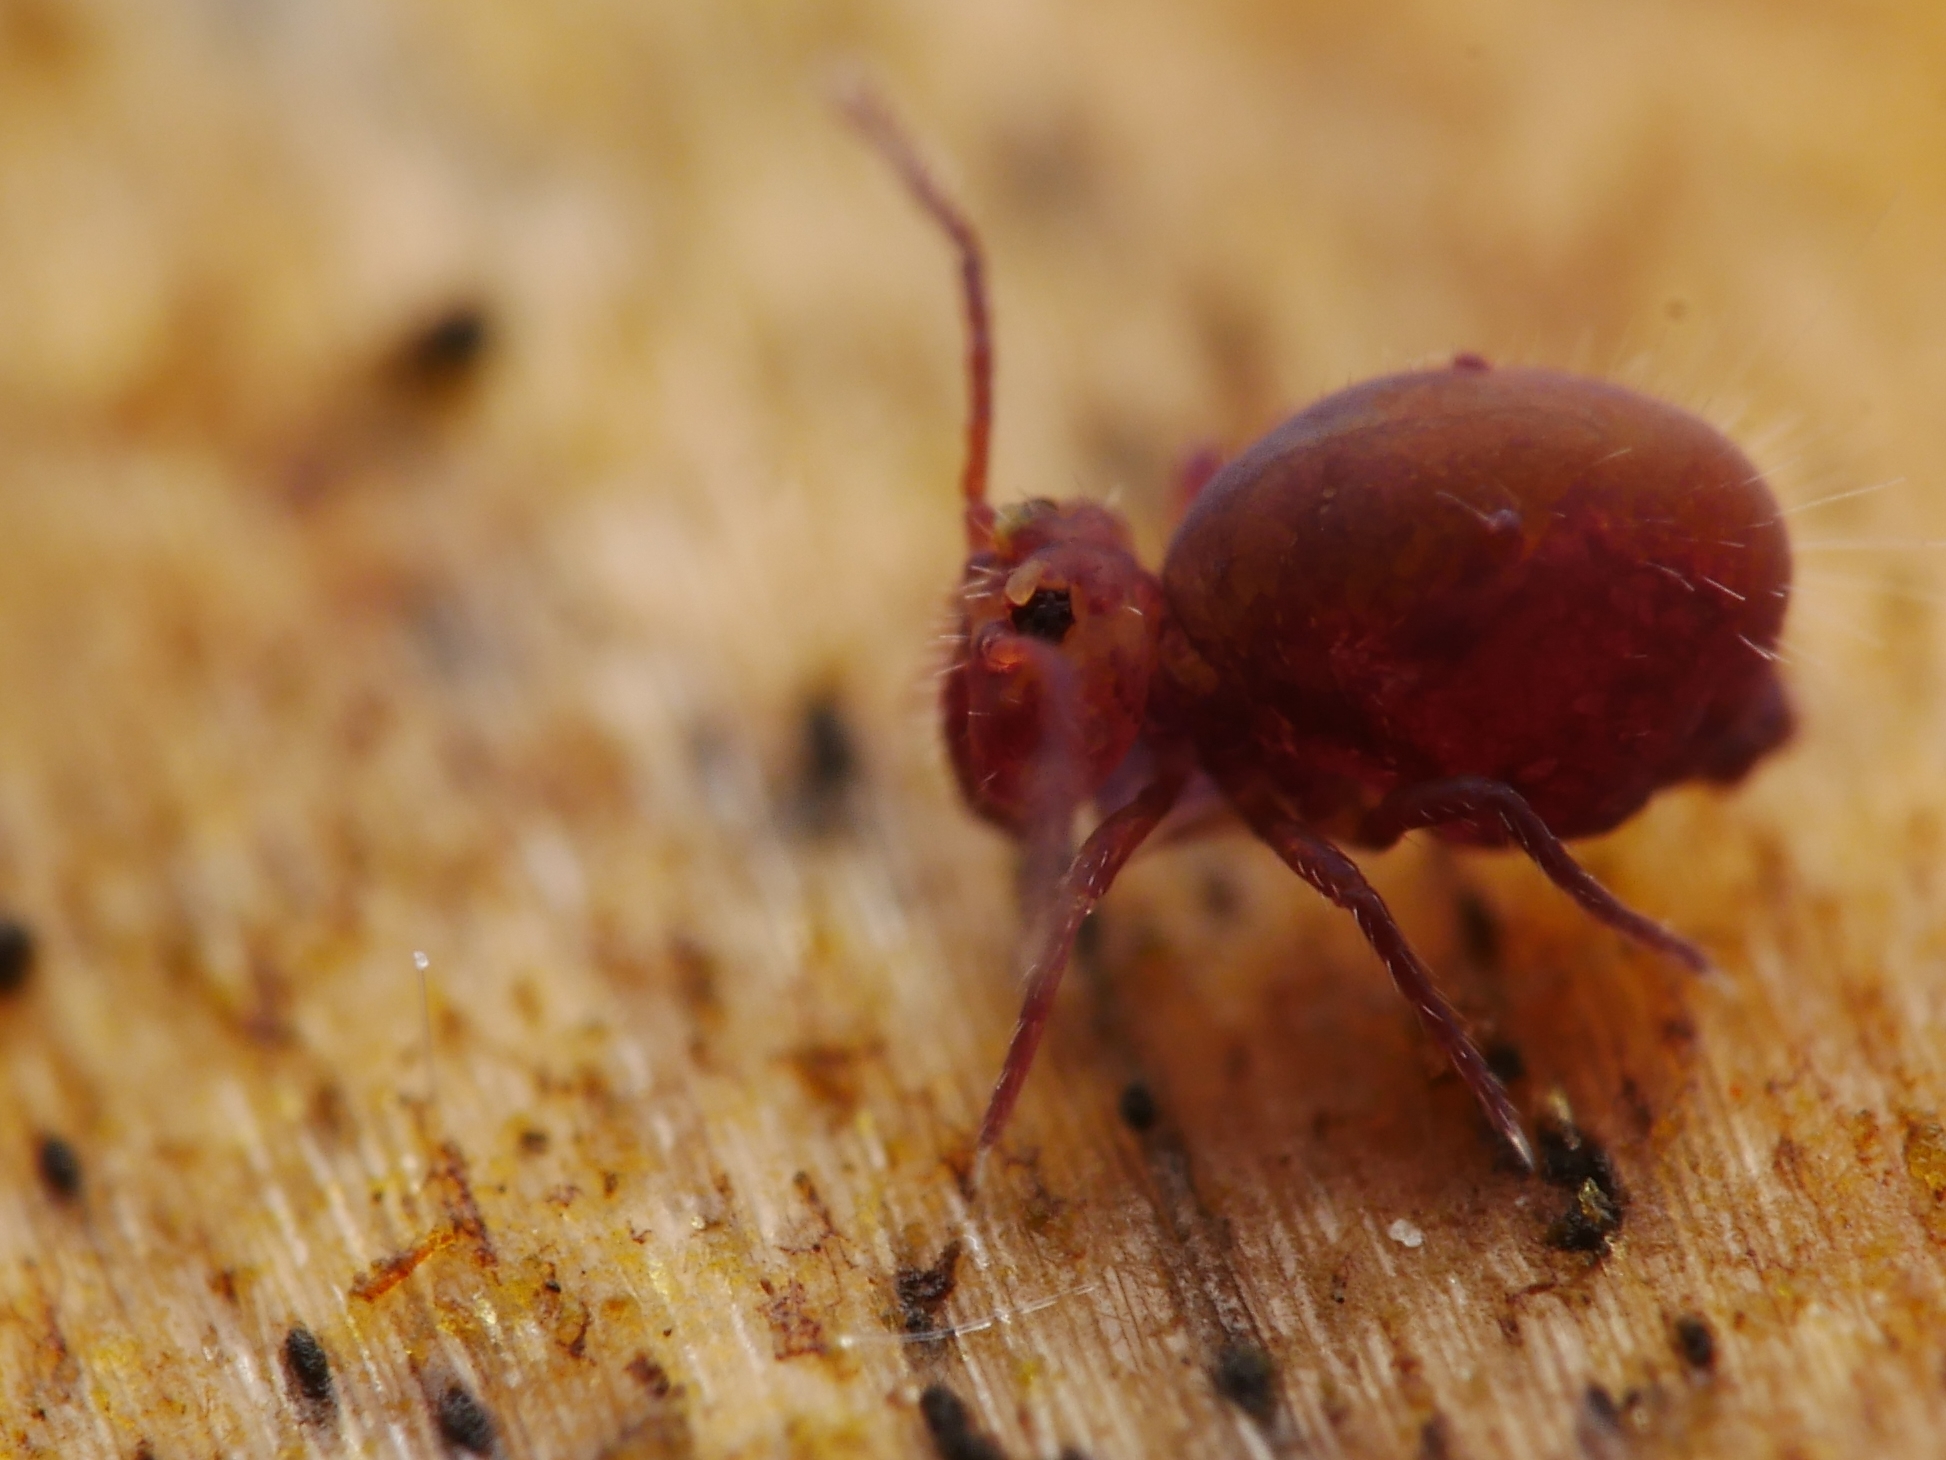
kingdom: Animalia
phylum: Arthropoda
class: Collembola
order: Symphypleona
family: Dicyrtomidae
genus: Dicyrtoma
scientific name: Dicyrtoma fusca
